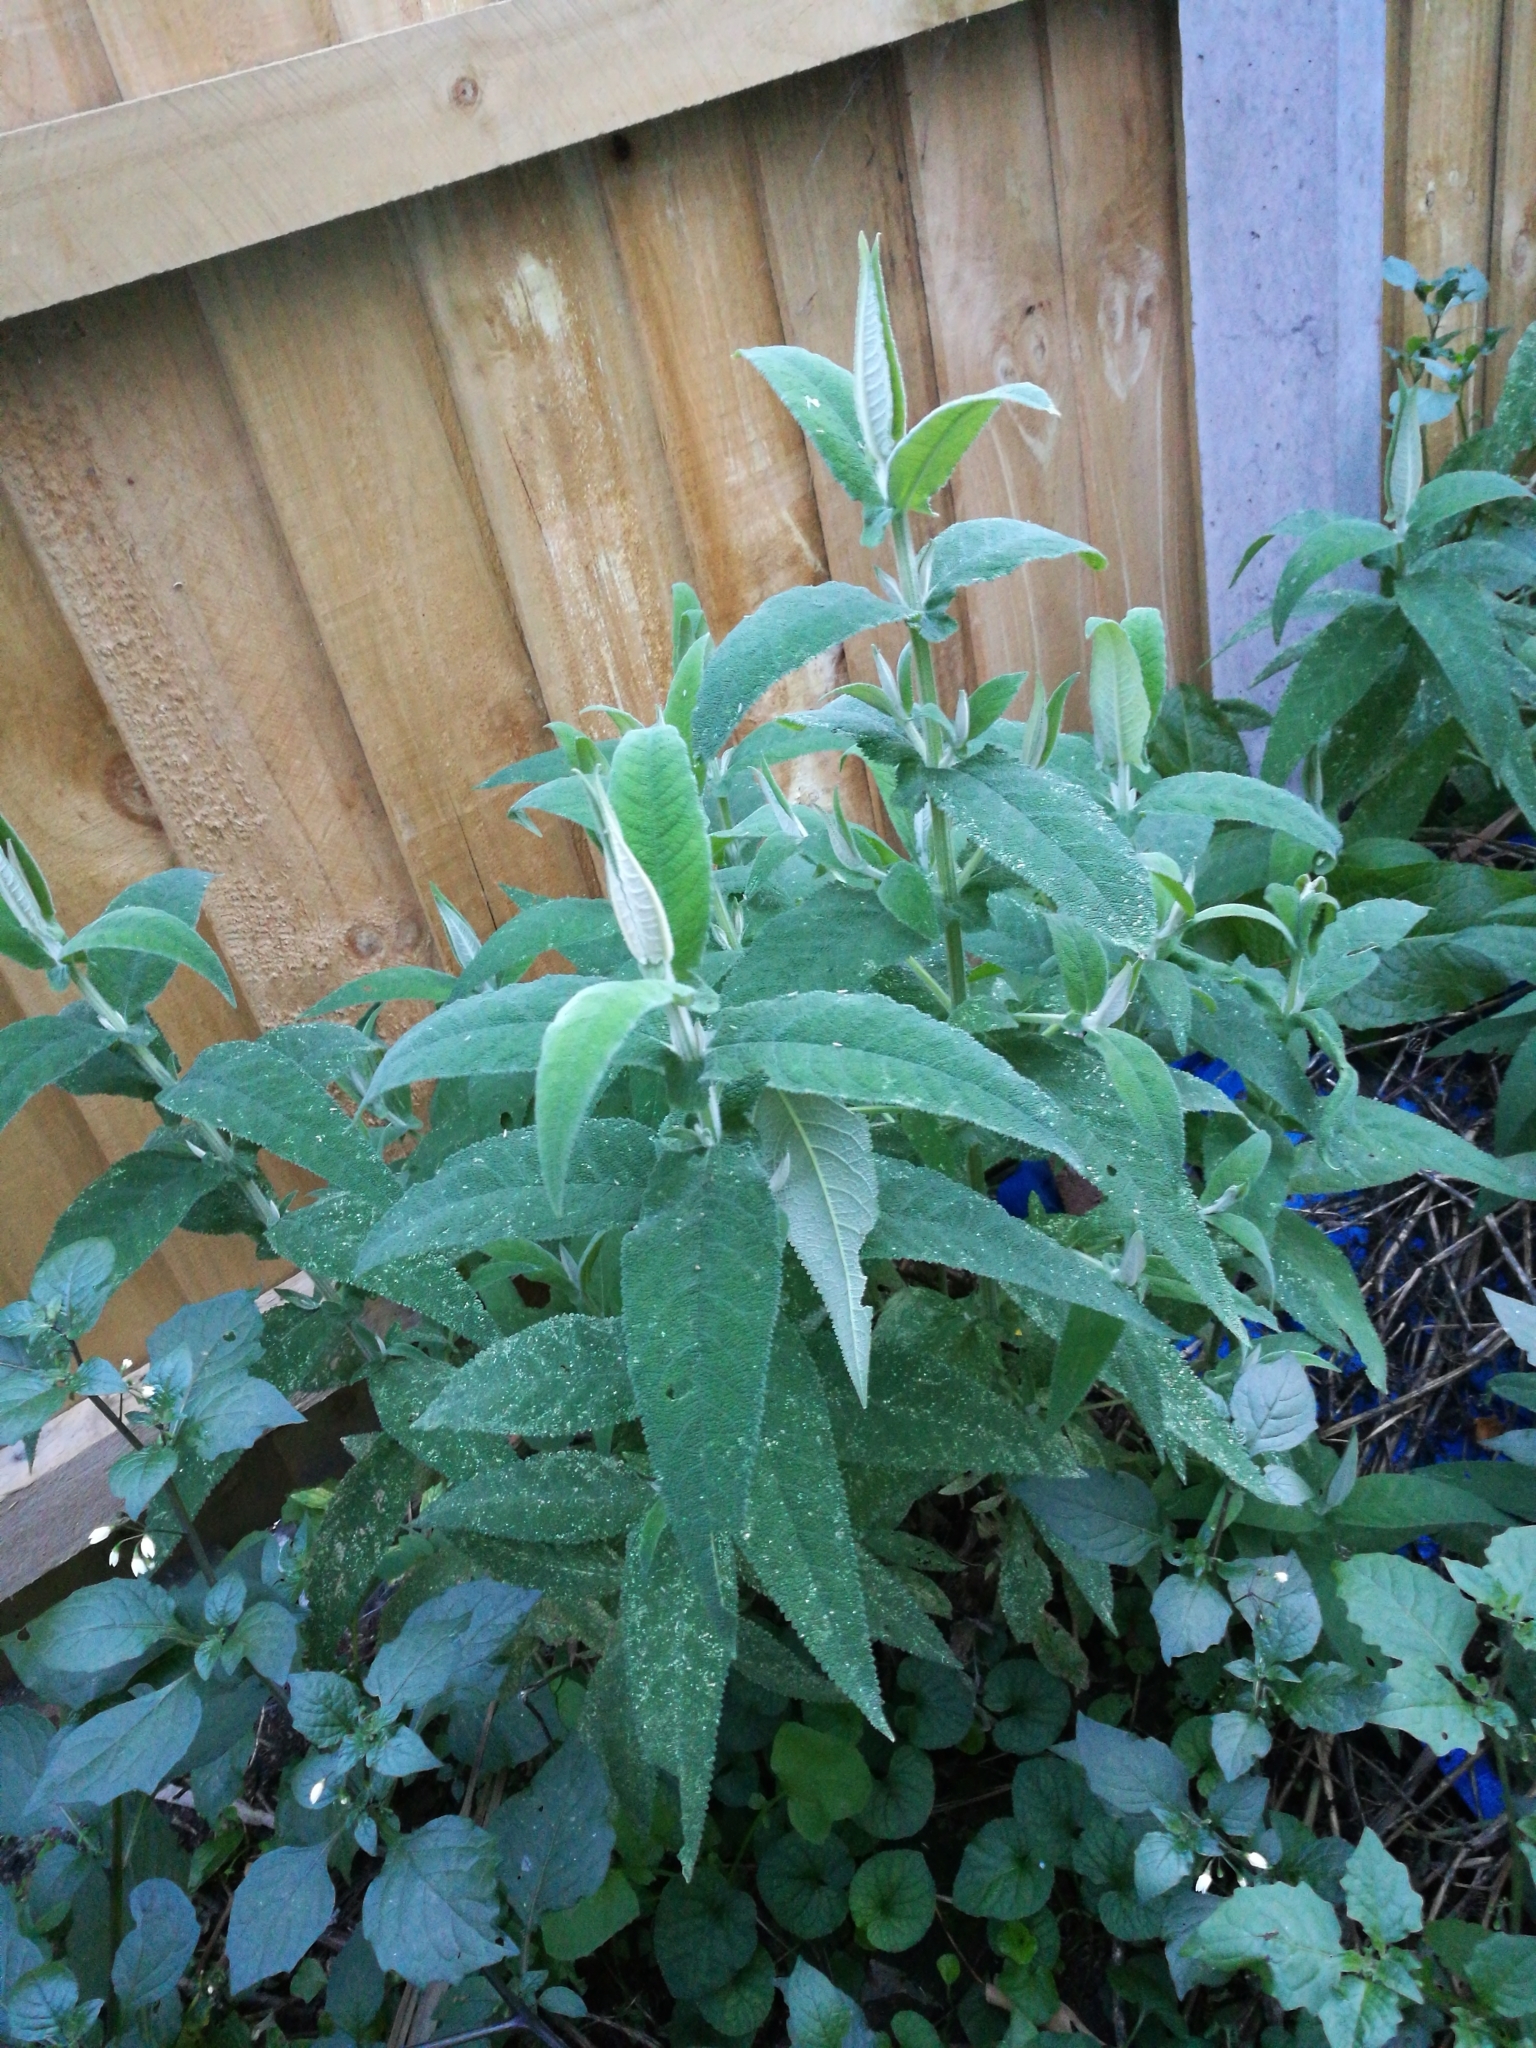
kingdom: Plantae
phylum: Tracheophyta
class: Magnoliopsida
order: Lamiales
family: Scrophulariaceae
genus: Buddleja
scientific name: Buddleja davidii
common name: Butterfly-bush
